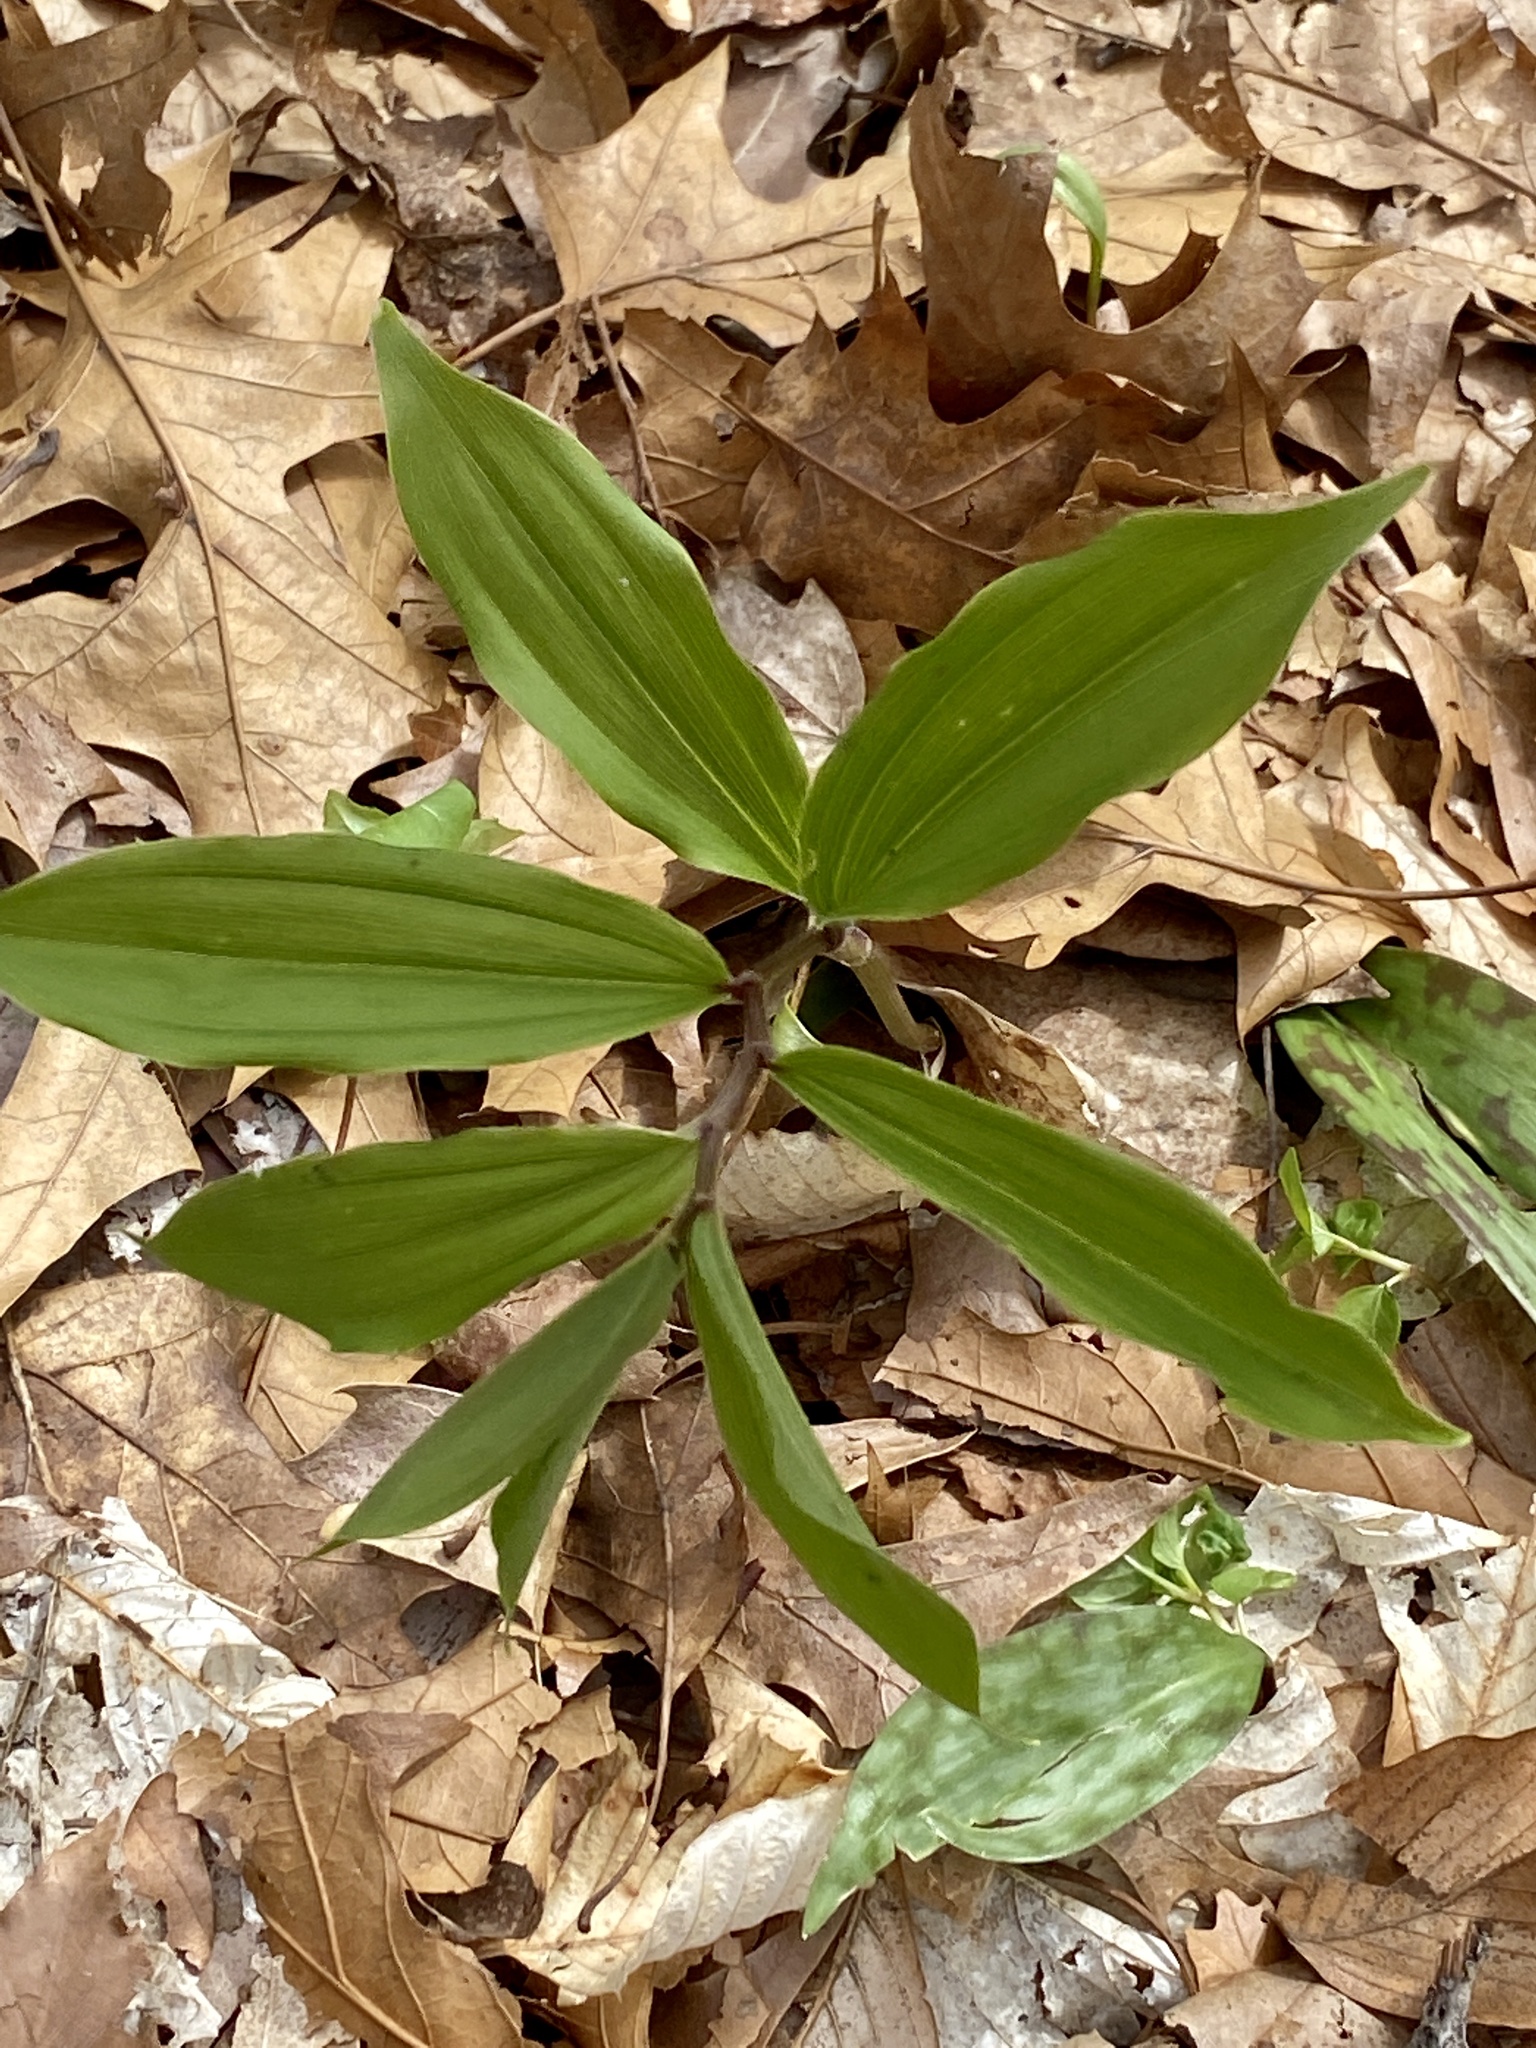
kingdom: Plantae
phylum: Tracheophyta
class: Liliopsida
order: Asparagales
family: Asparagaceae
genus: Maianthemum
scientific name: Maianthemum racemosum
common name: False spikenard
